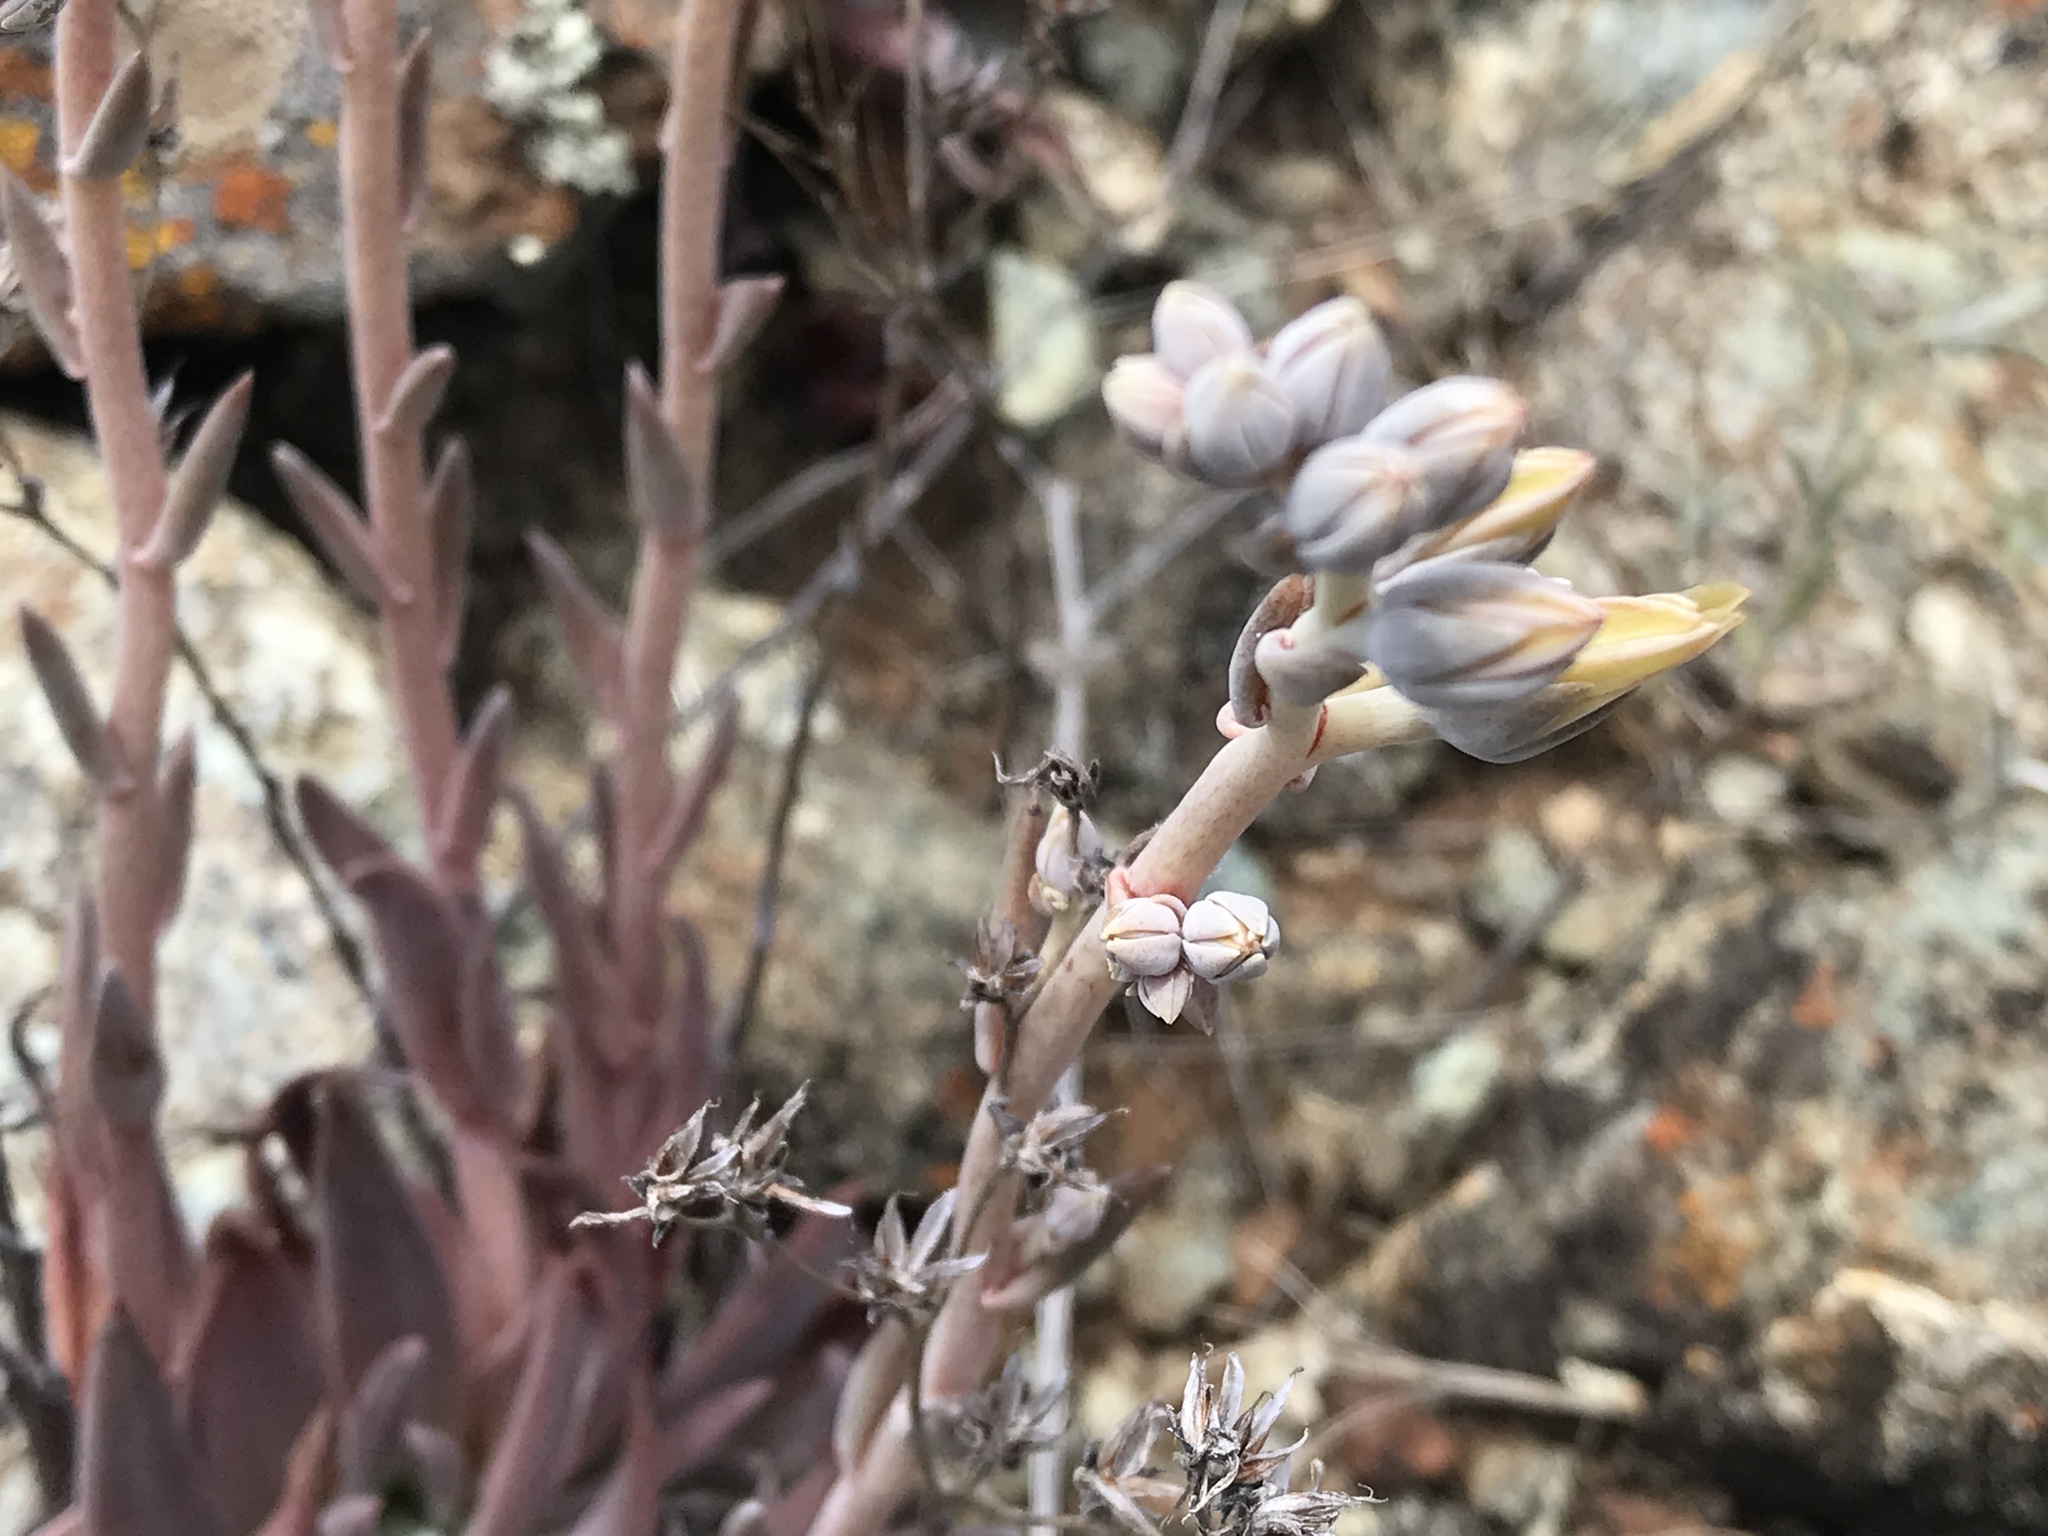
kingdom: Plantae
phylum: Tracheophyta
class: Magnoliopsida
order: Saxifragales
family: Crassulaceae
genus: Dudleya
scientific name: Dudleya abramsii
